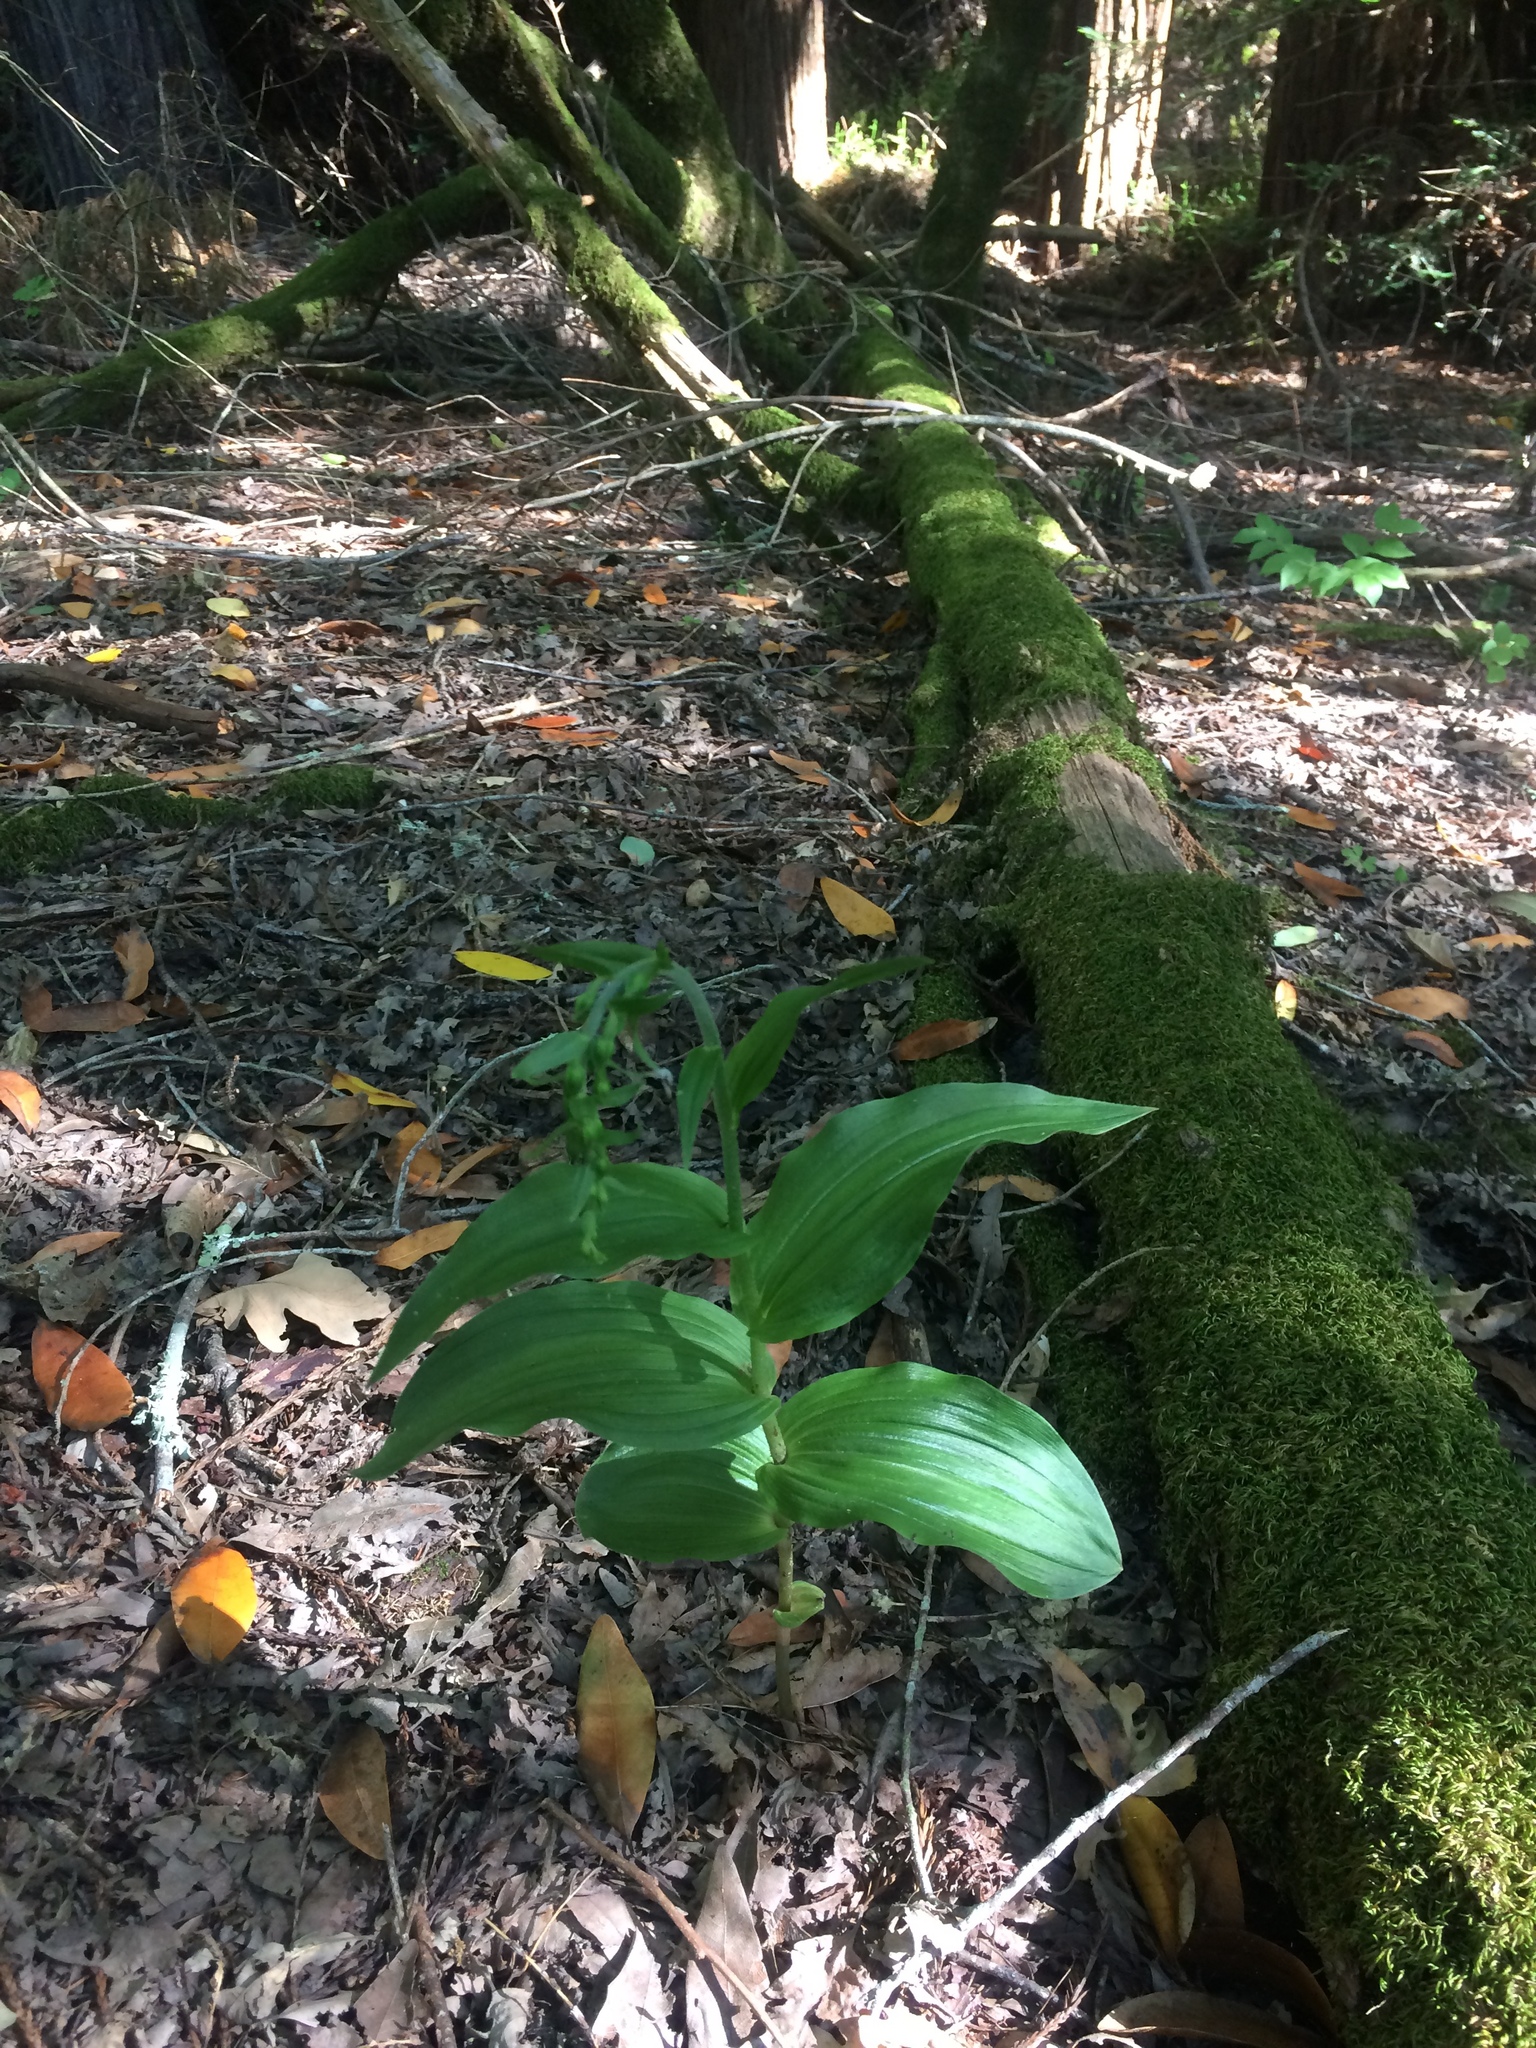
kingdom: Plantae
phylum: Tracheophyta
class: Liliopsida
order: Asparagales
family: Orchidaceae
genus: Epipactis
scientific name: Epipactis helleborine
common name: Broad-leaved helleborine
